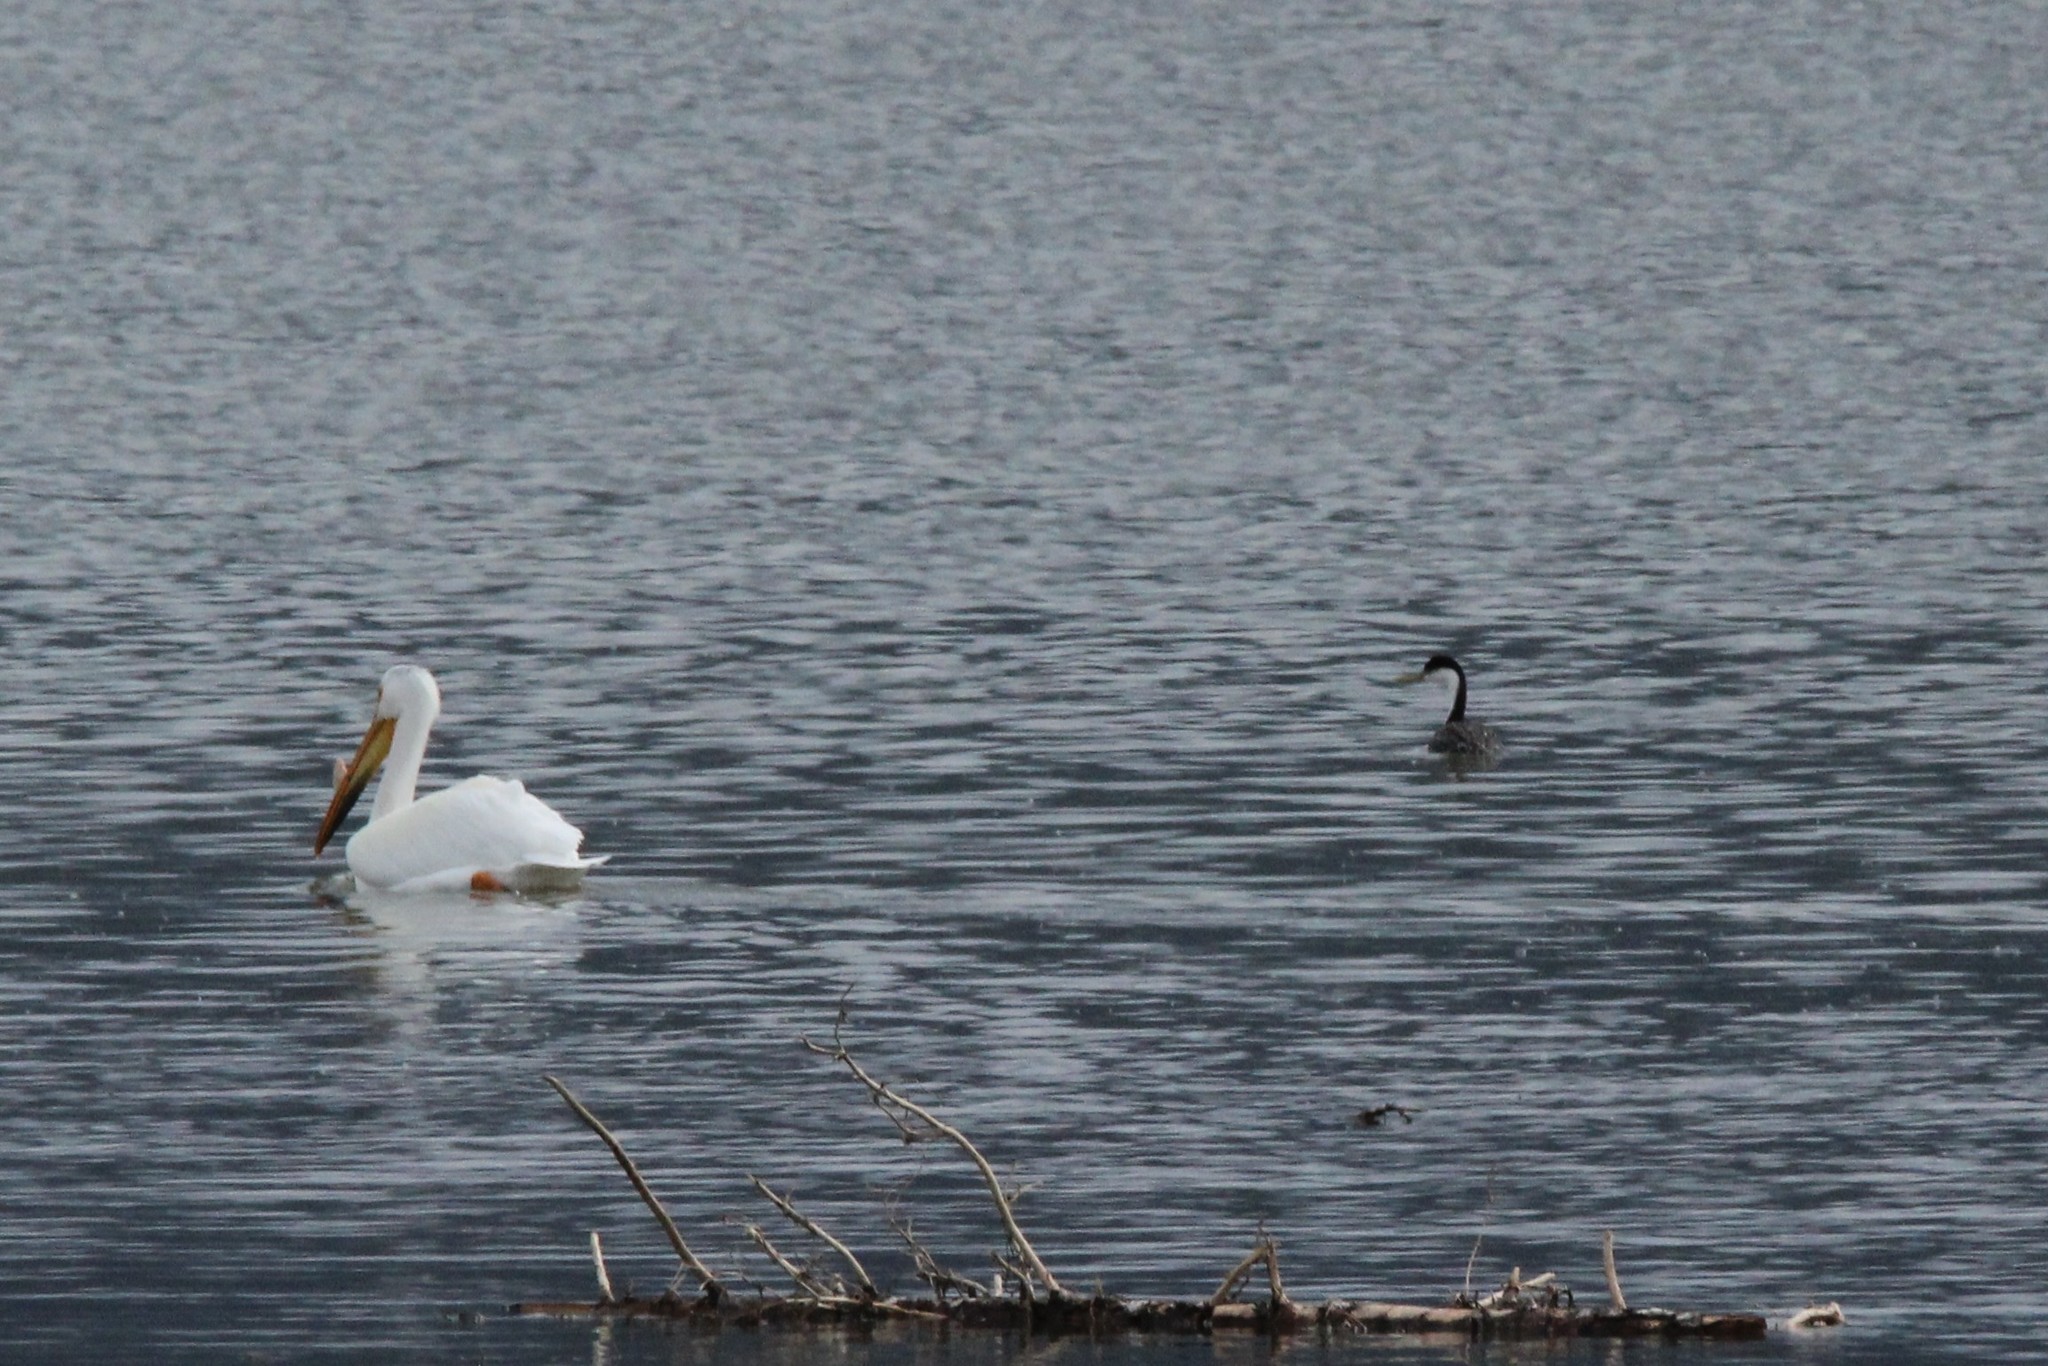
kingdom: Animalia
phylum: Chordata
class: Aves
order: Podicipediformes
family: Podicipedidae
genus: Aechmophorus
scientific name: Aechmophorus occidentalis
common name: Western grebe
